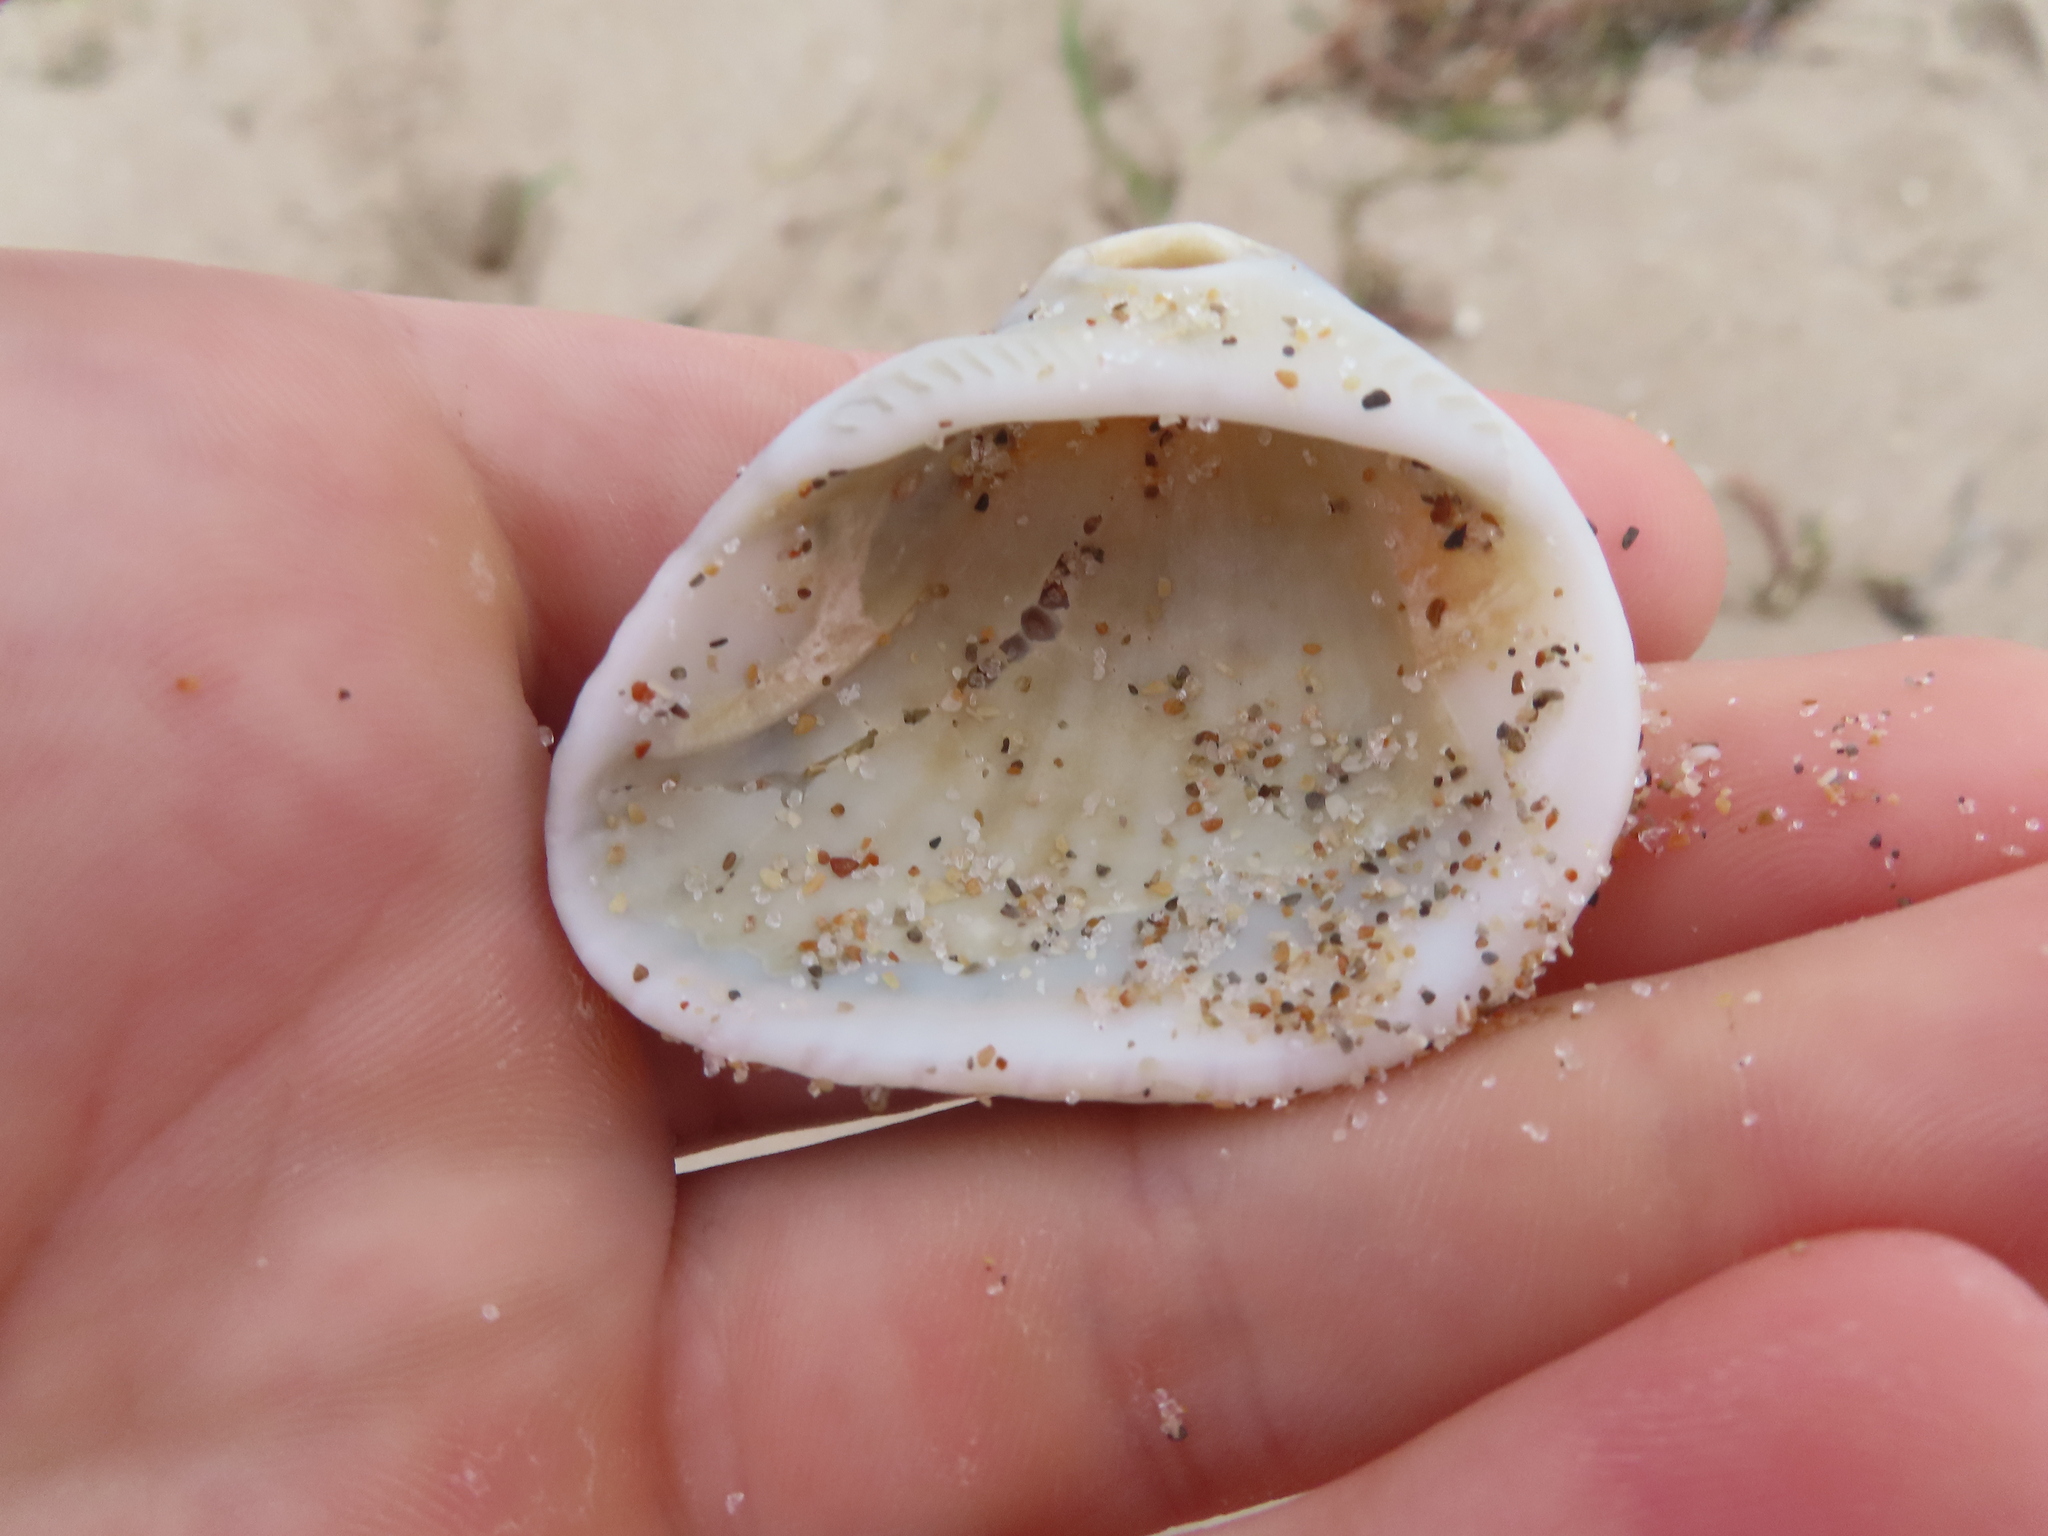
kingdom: Animalia
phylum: Mollusca
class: Bivalvia
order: Arcida
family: Noetiidae
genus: Noetia
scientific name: Noetia ponderosa
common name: Ponderous ark
